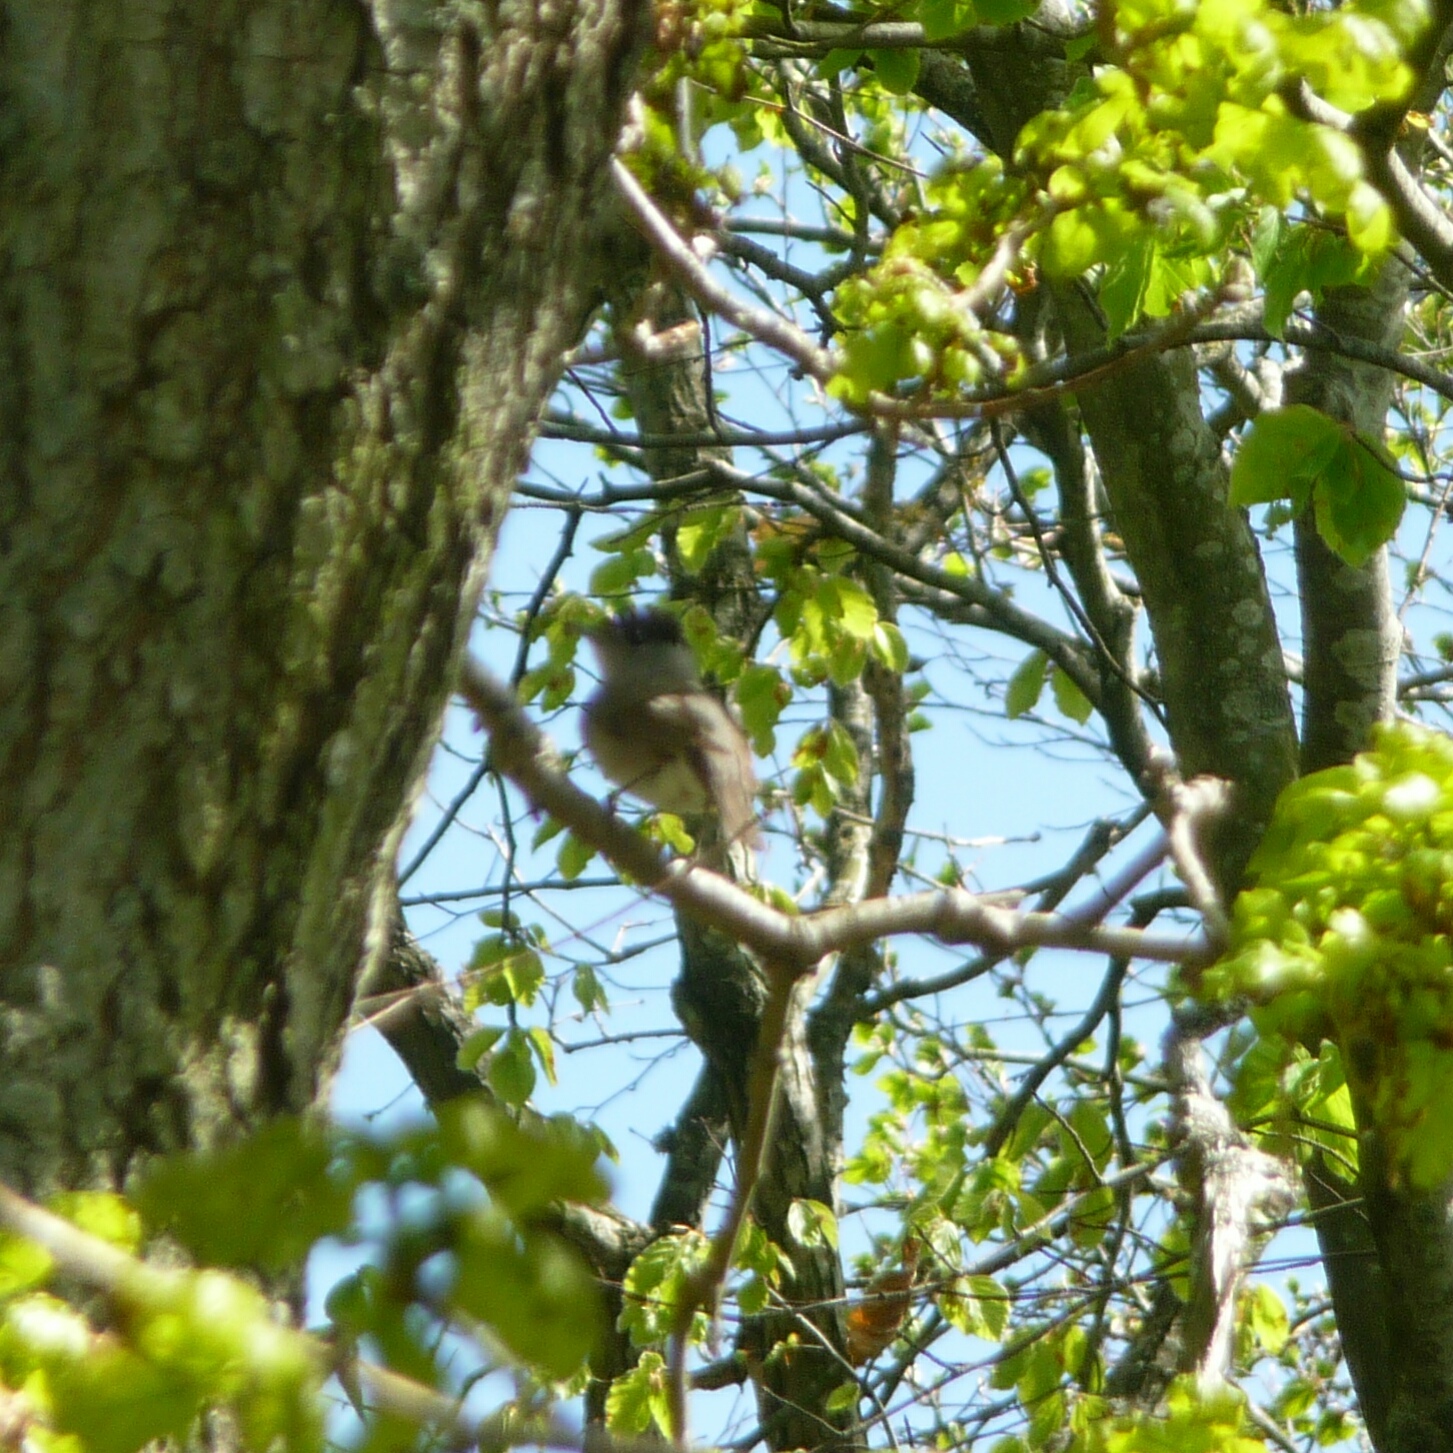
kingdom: Animalia
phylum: Chordata
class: Aves
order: Passeriformes
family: Sylviidae
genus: Sylvia
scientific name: Sylvia atricapilla
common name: Eurasian blackcap
